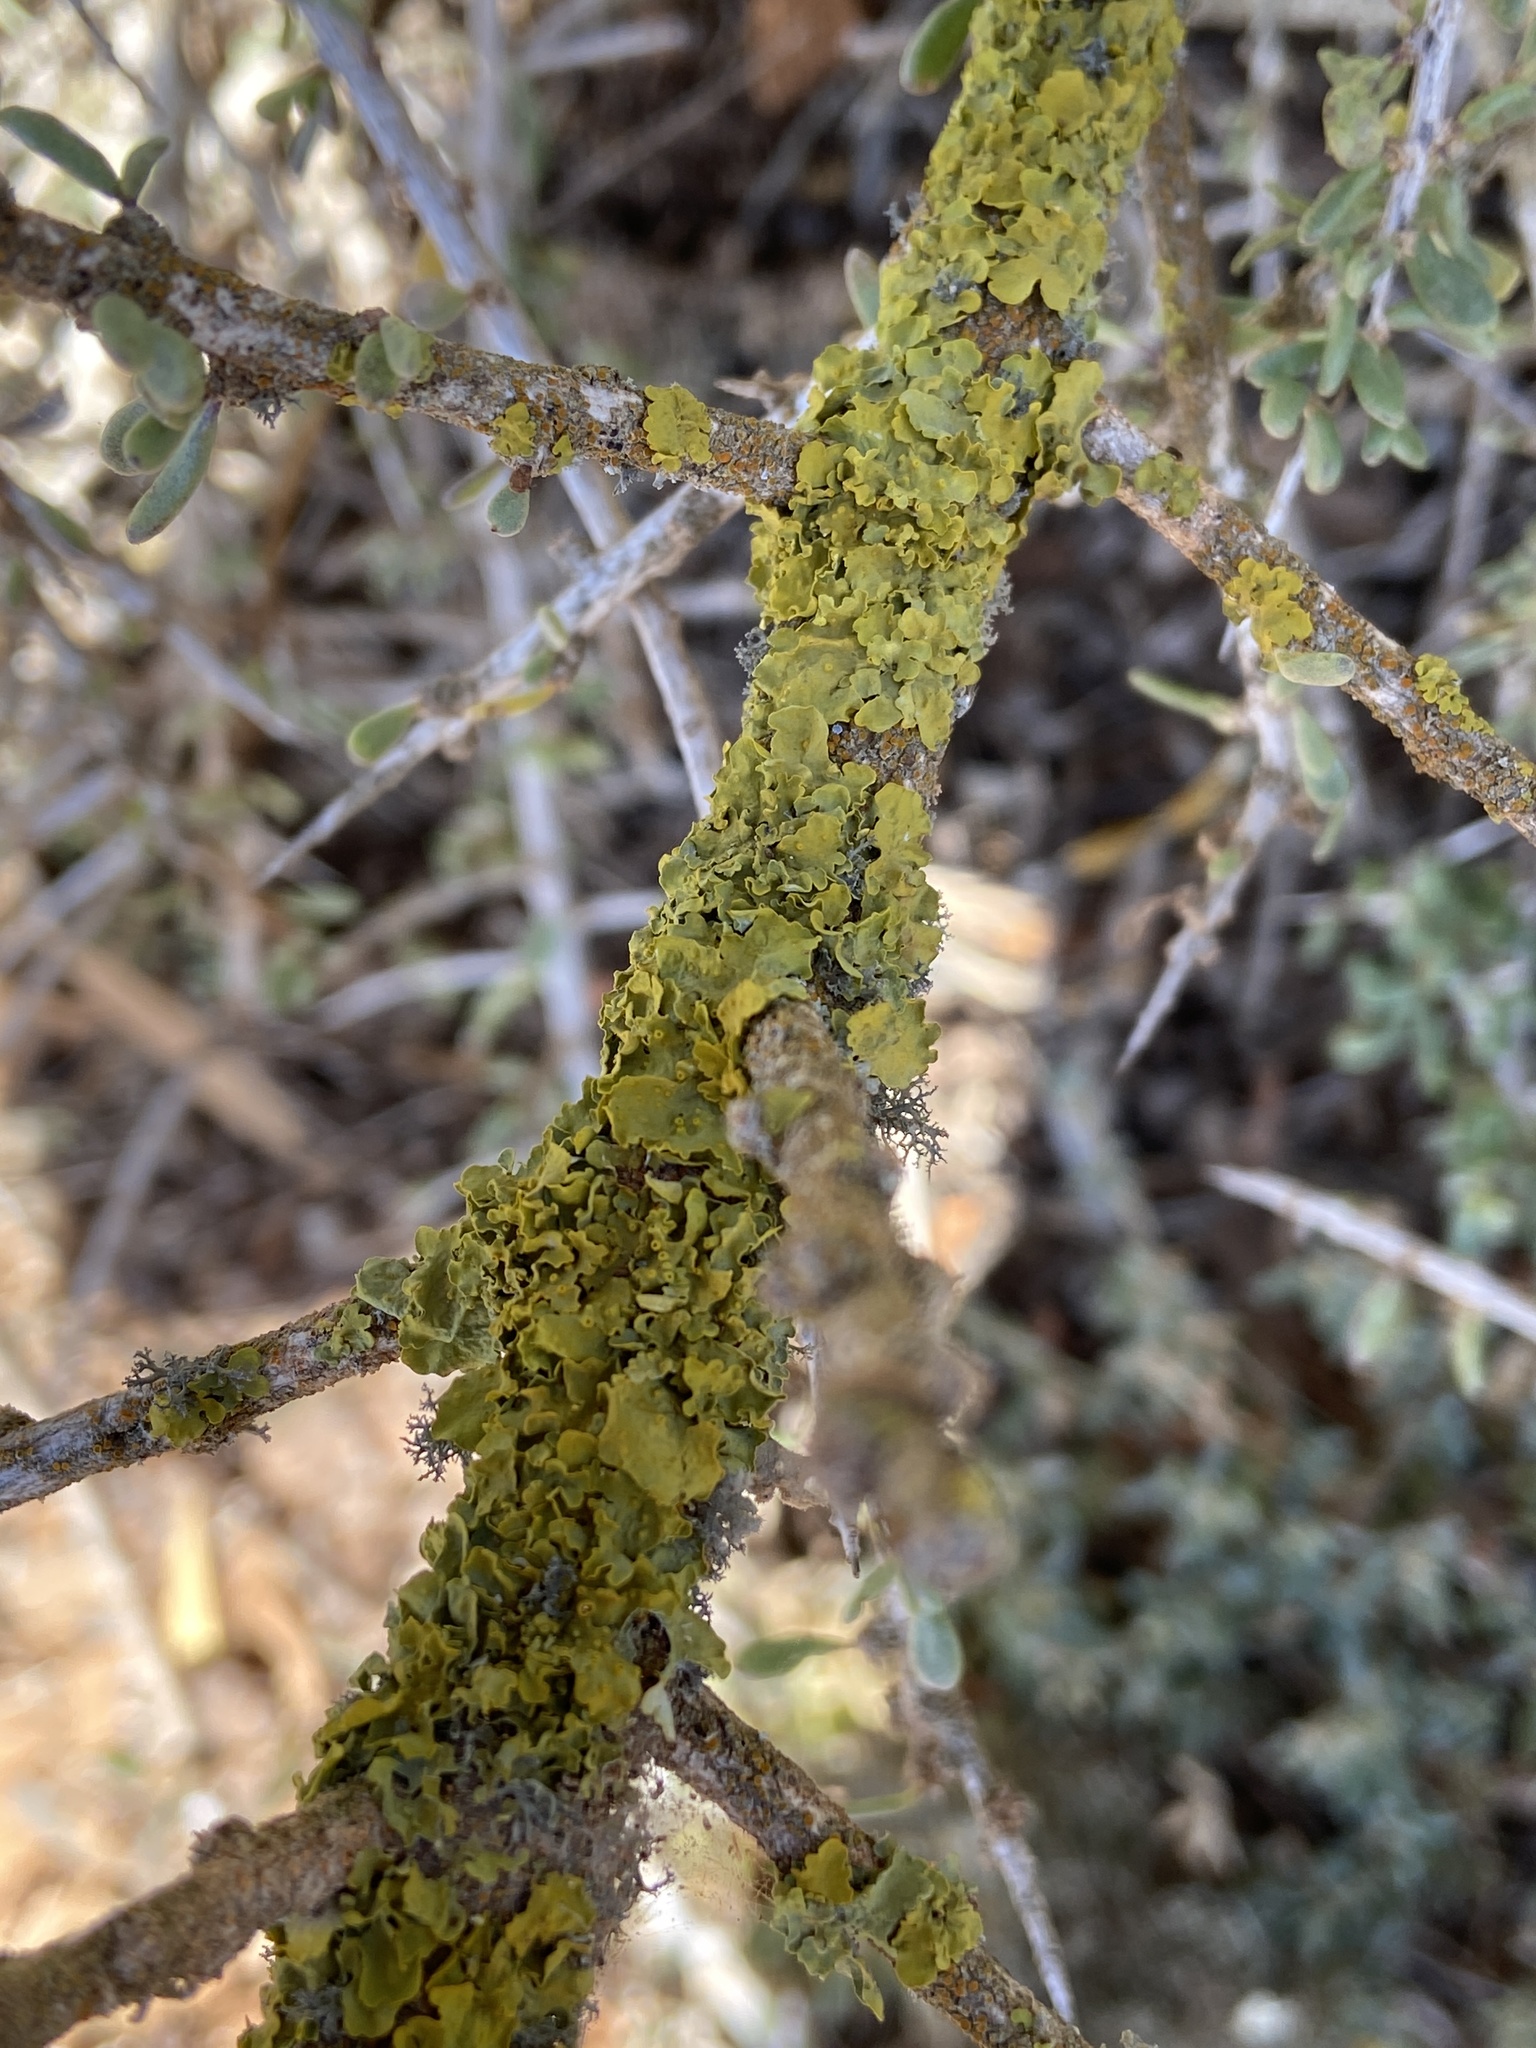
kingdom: Fungi
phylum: Ascomycota
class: Lecanoromycetes
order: Teloschistales
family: Teloschistaceae
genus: Xanthoria
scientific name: Xanthoria parietina
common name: Common orange lichen
